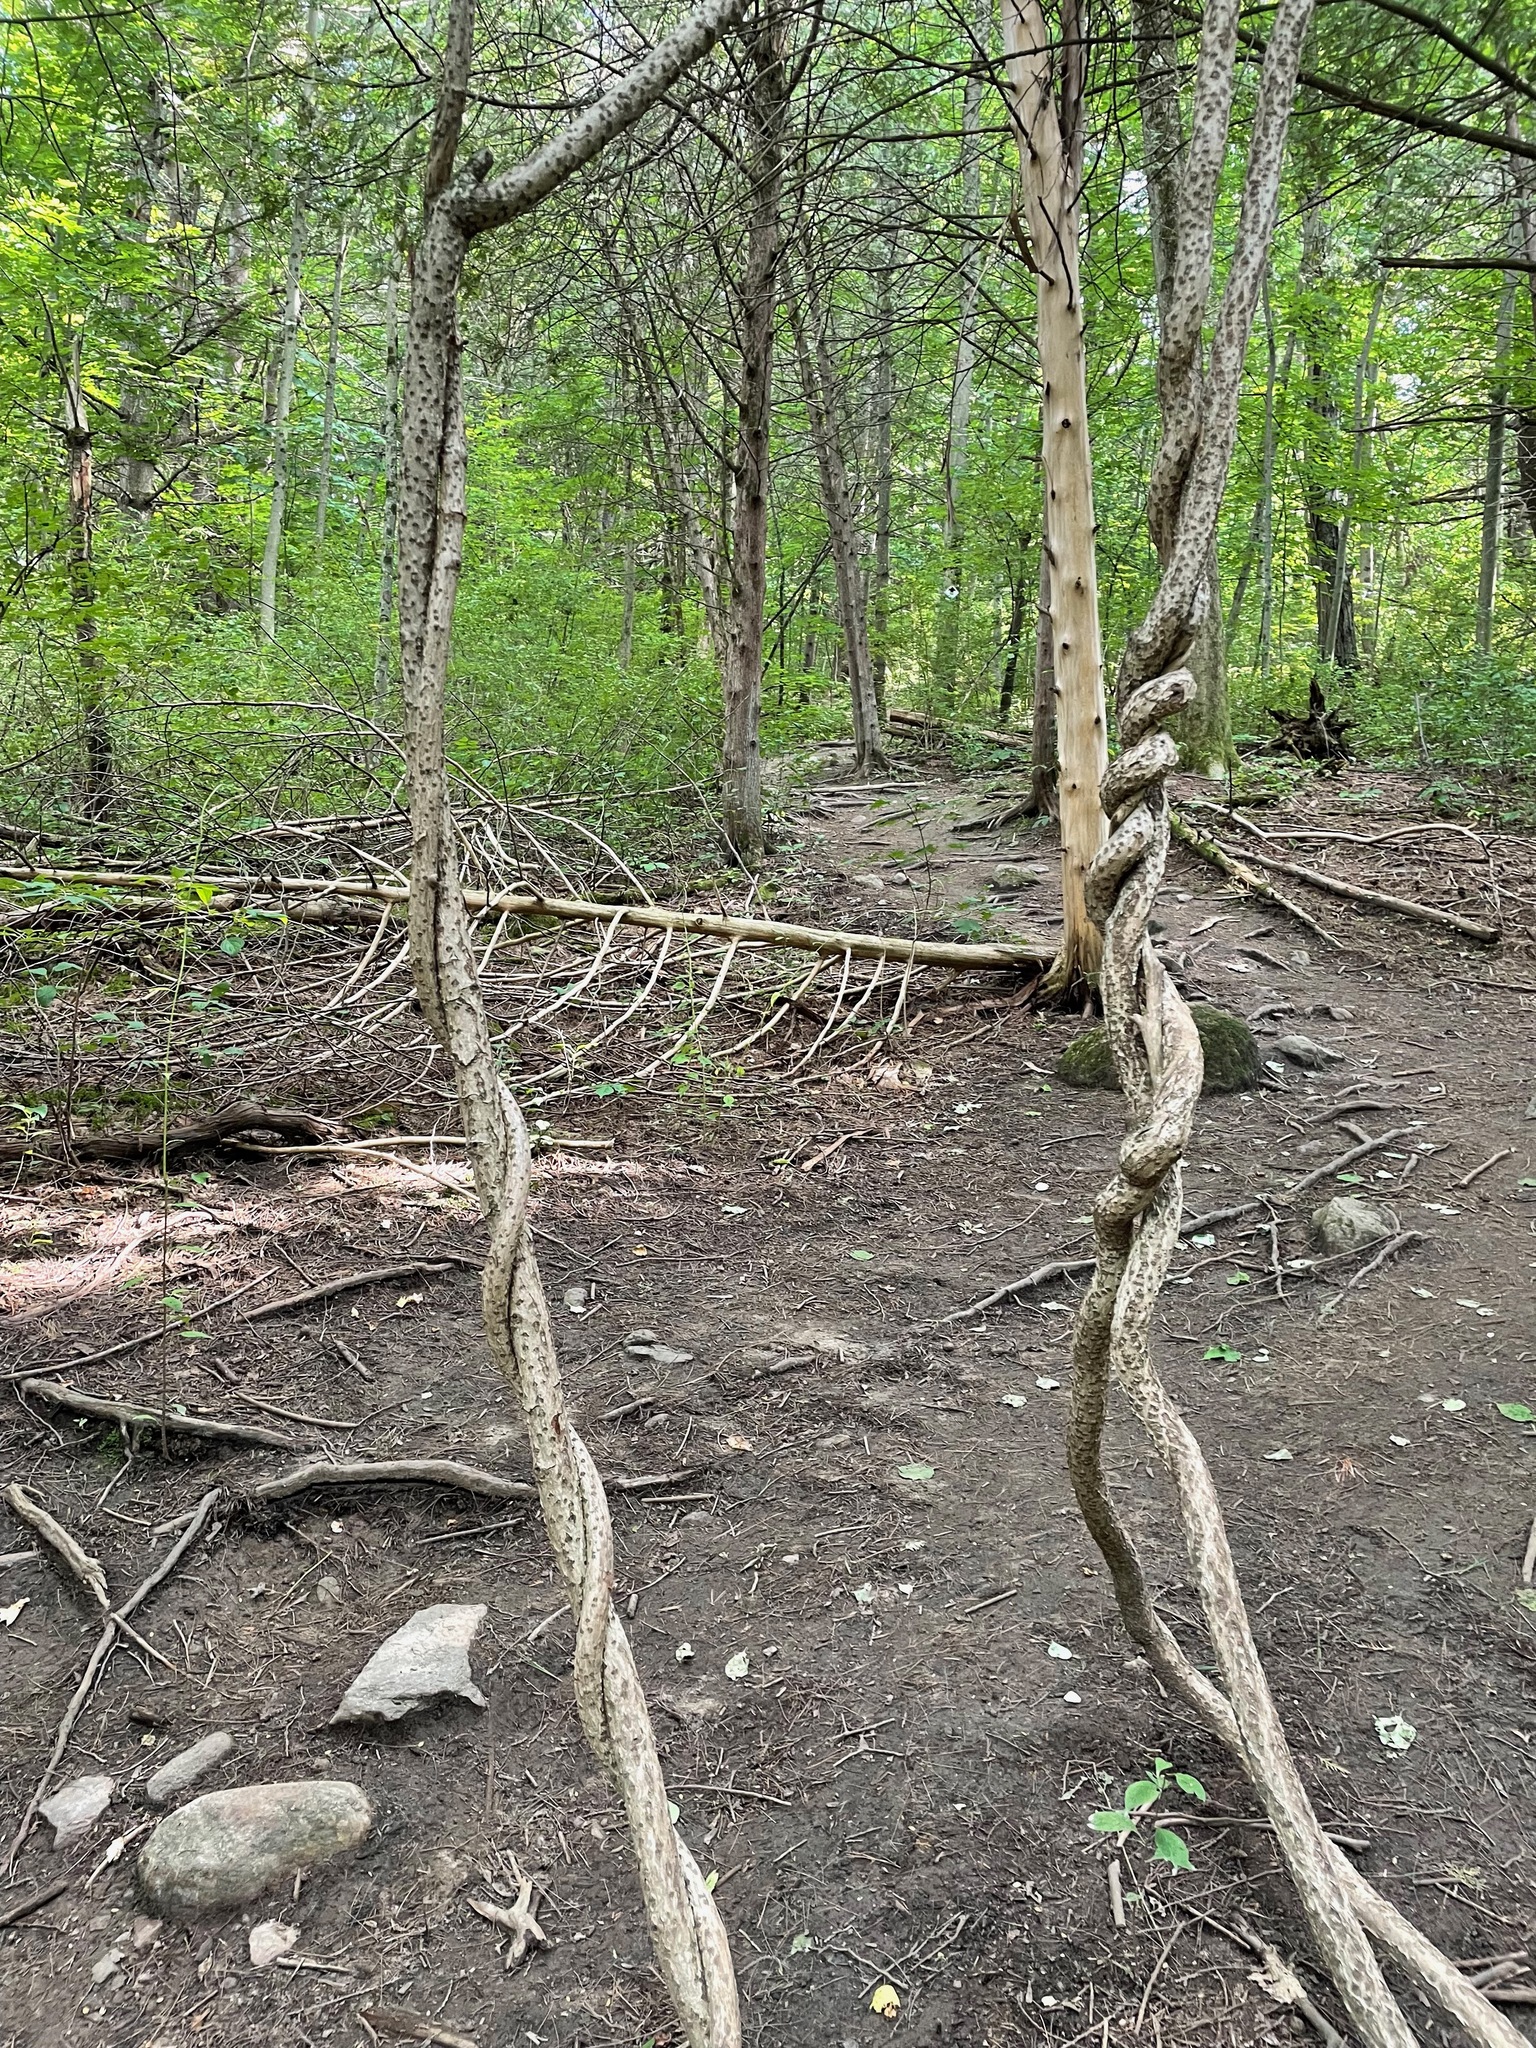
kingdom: Plantae
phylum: Tracheophyta
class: Magnoliopsida
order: Celastrales
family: Celastraceae
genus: Celastrus
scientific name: Celastrus orbiculatus
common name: Oriental bittersweet
